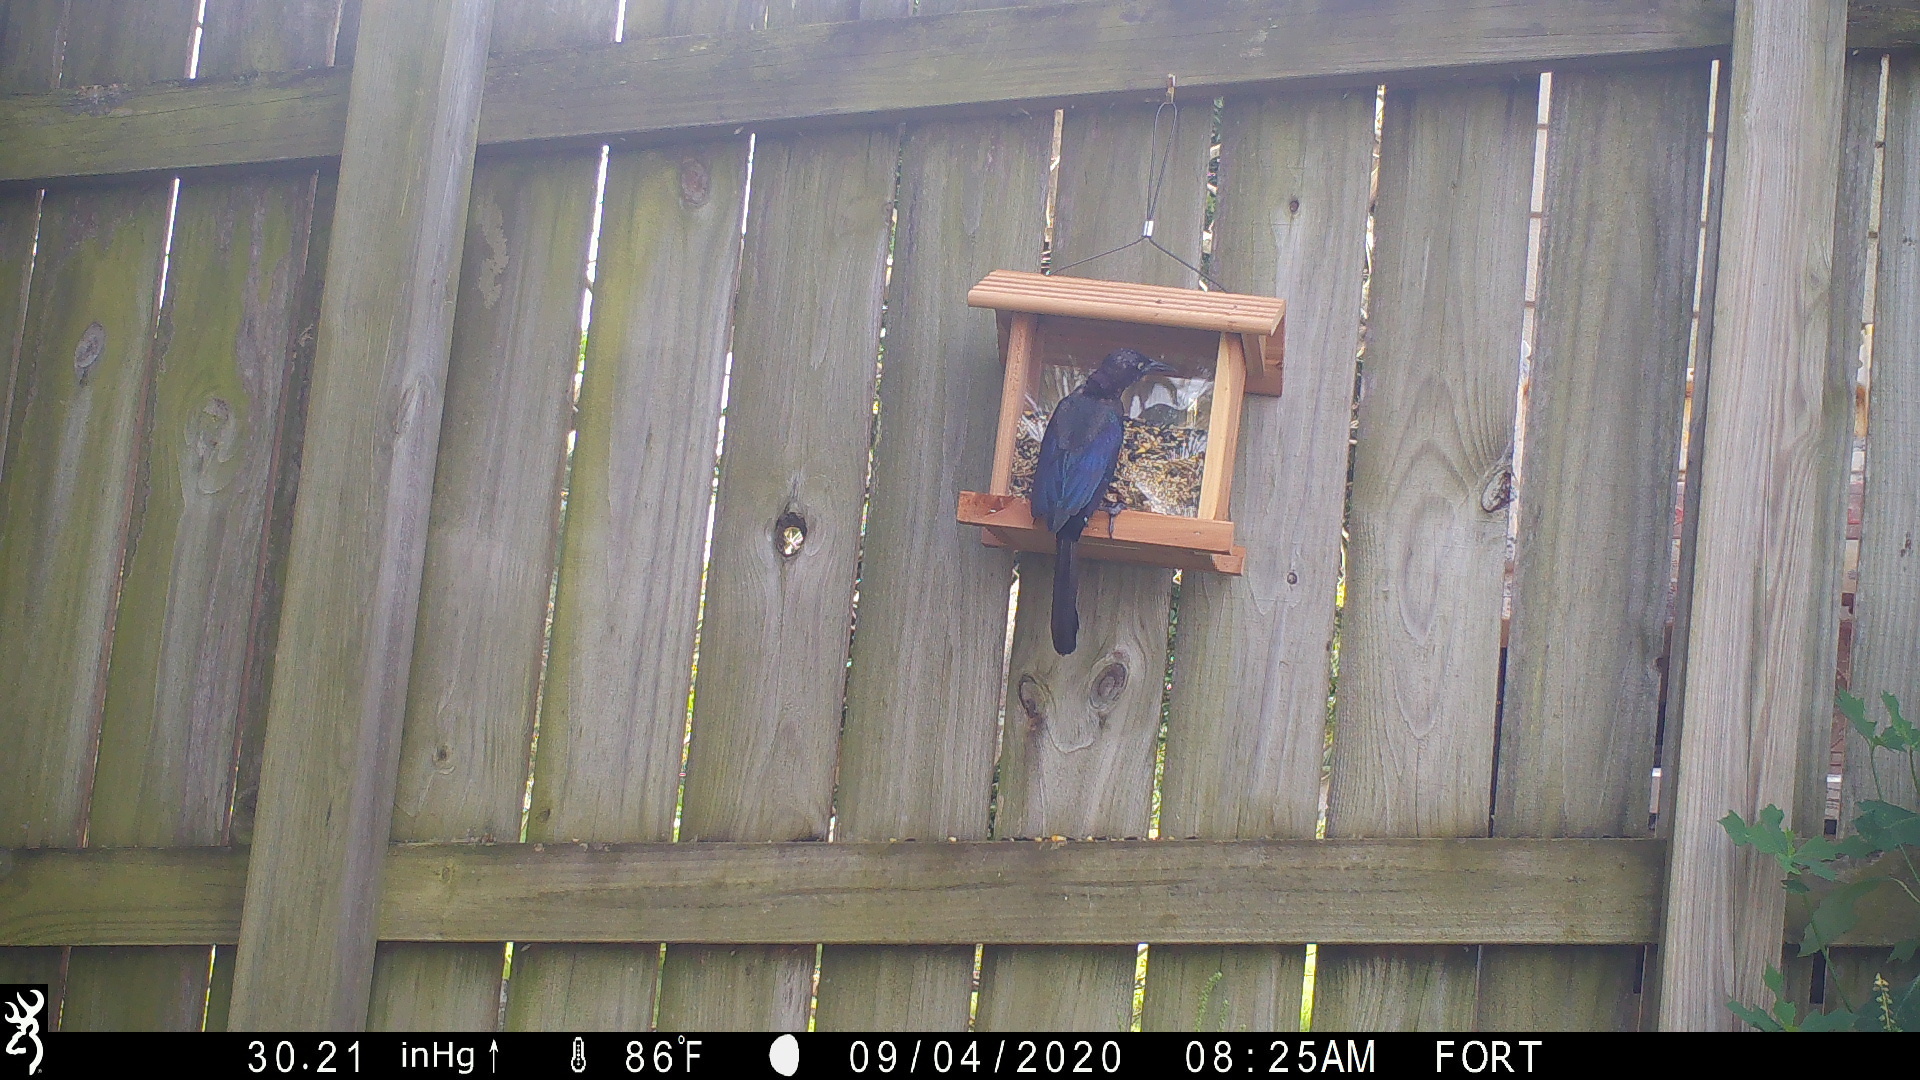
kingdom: Animalia
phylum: Chordata
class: Aves
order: Passeriformes
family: Icteridae
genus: Quiscalus
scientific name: Quiscalus quiscula
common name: Common grackle
